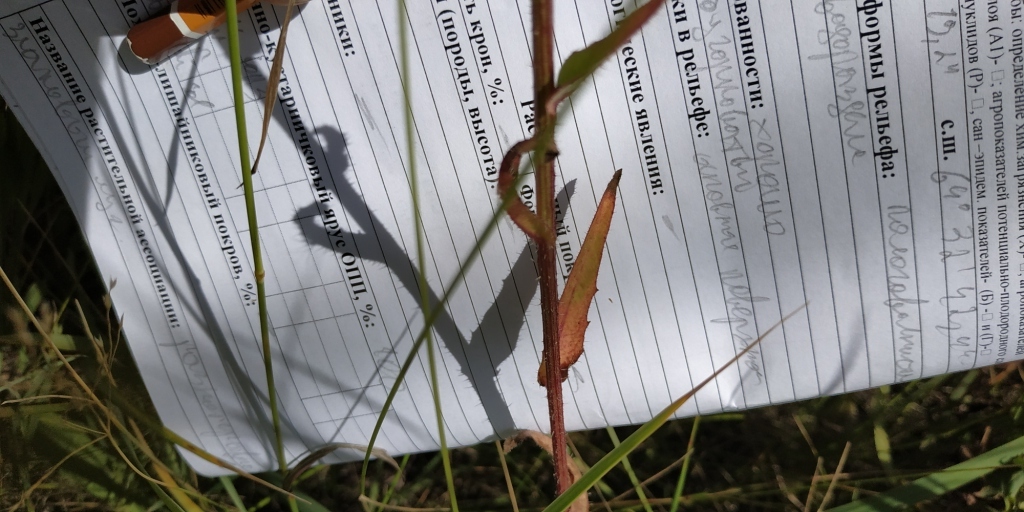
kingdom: Plantae
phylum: Tracheophyta
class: Magnoliopsida
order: Asterales
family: Asteraceae
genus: Picris
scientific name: Picris hieracioides
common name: Hawkweed oxtongue
